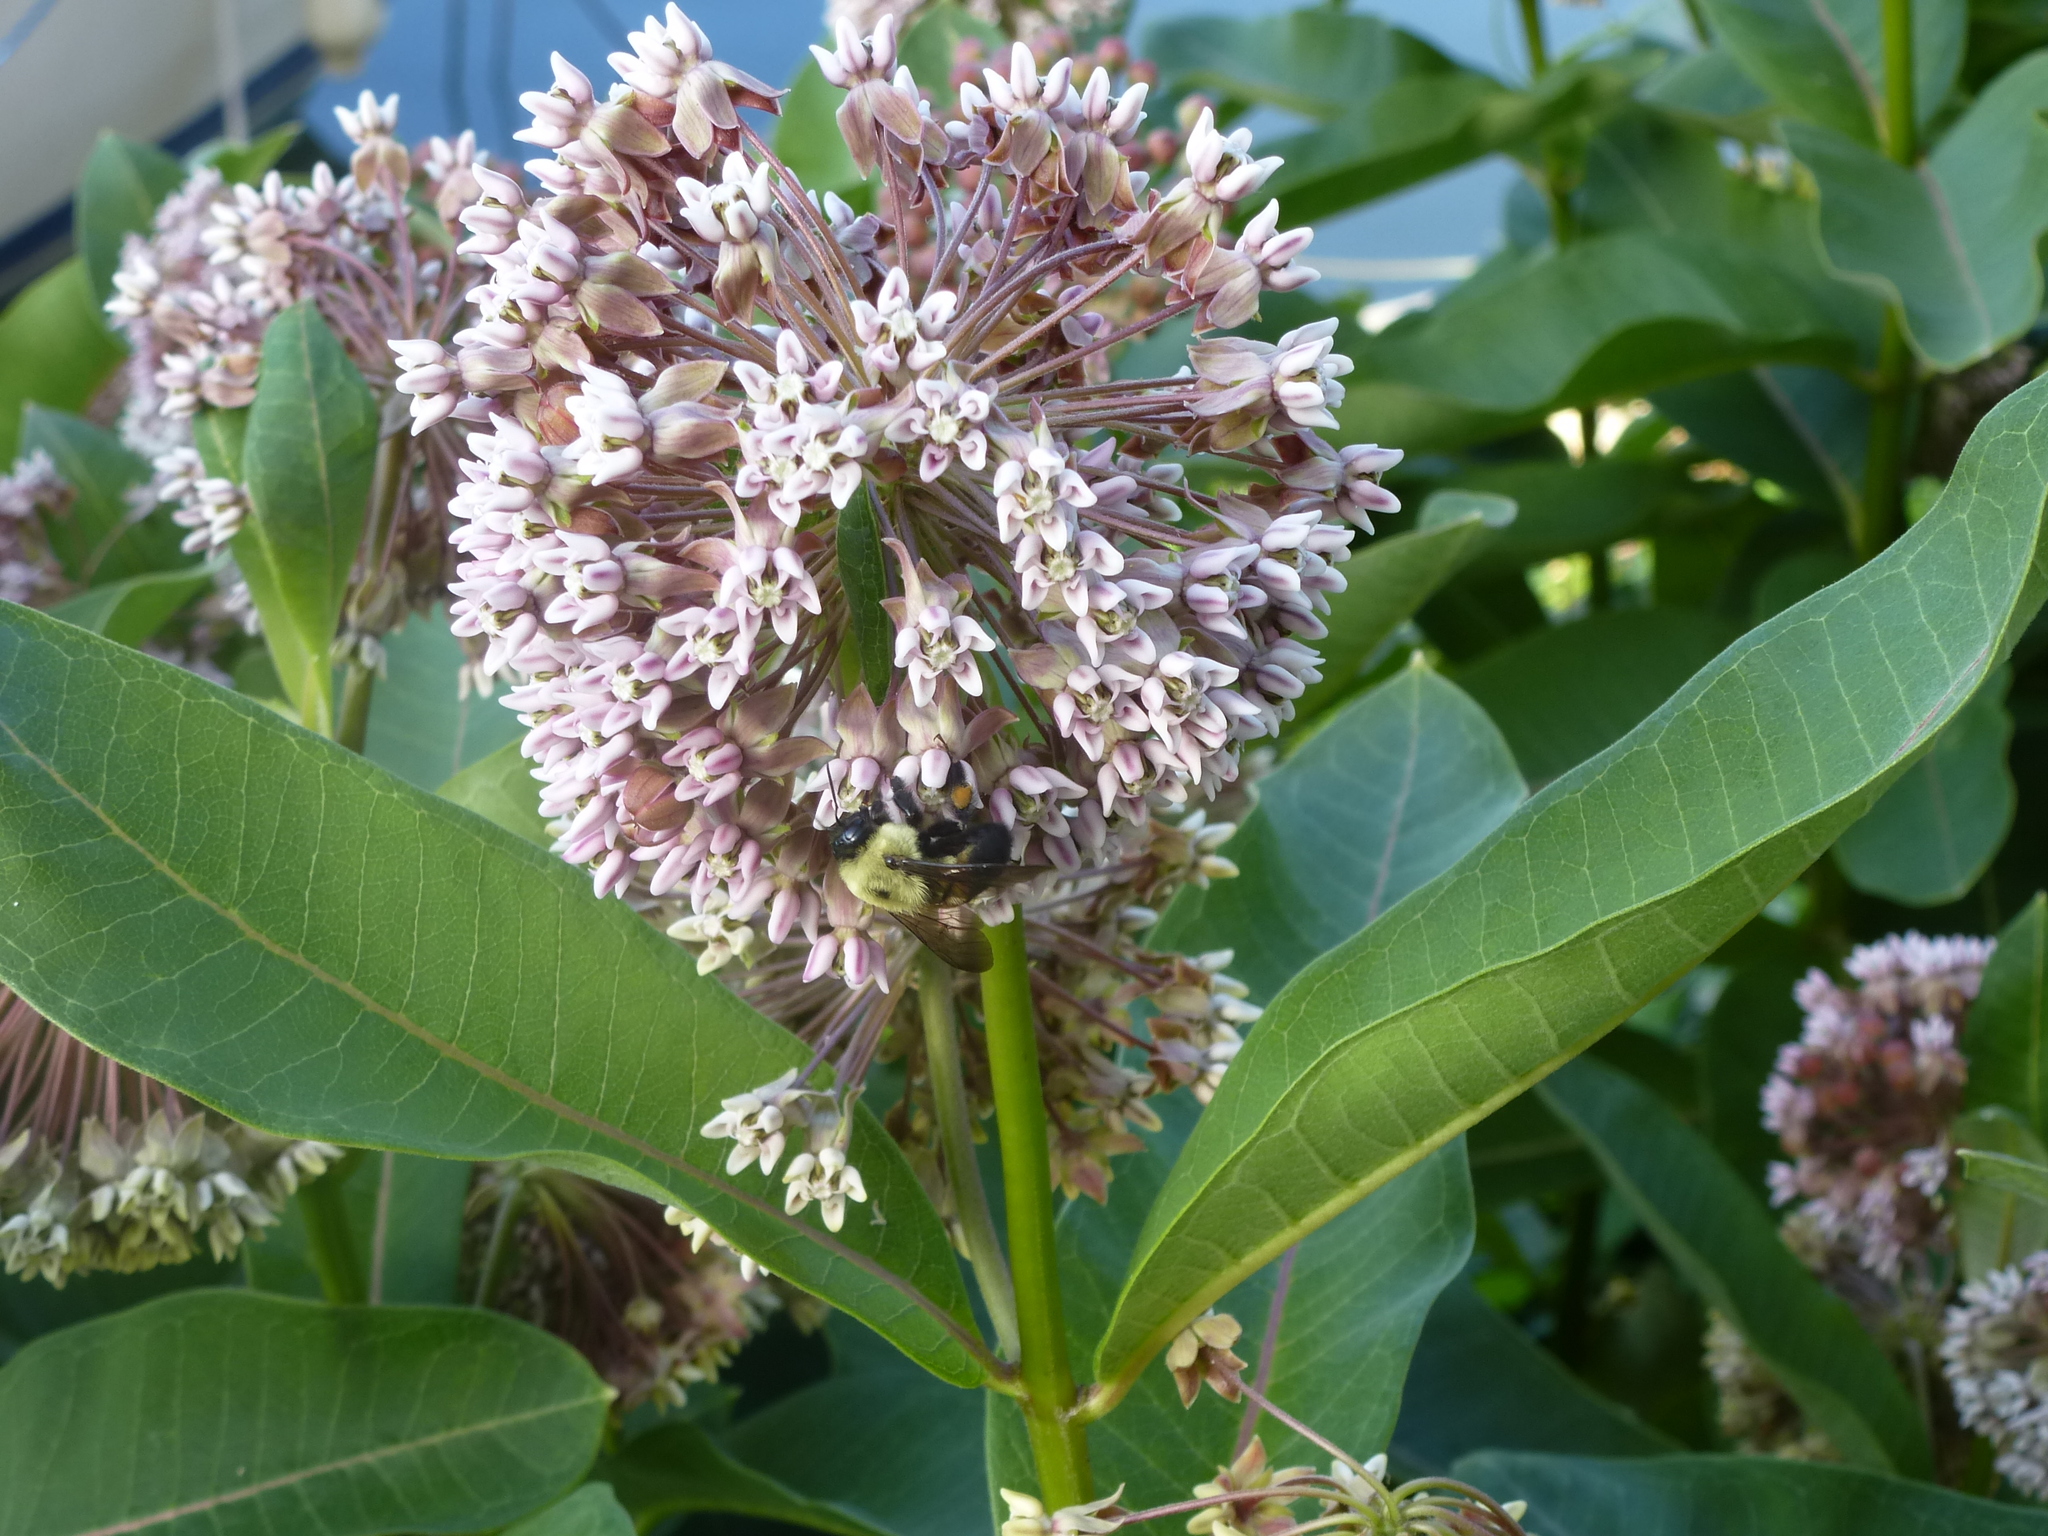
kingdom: Animalia
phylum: Arthropoda
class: Insecta
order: Hymenoptera
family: Apidae
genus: Bombus
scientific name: Bombus griseocollis
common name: Brown-belted bumble bee
